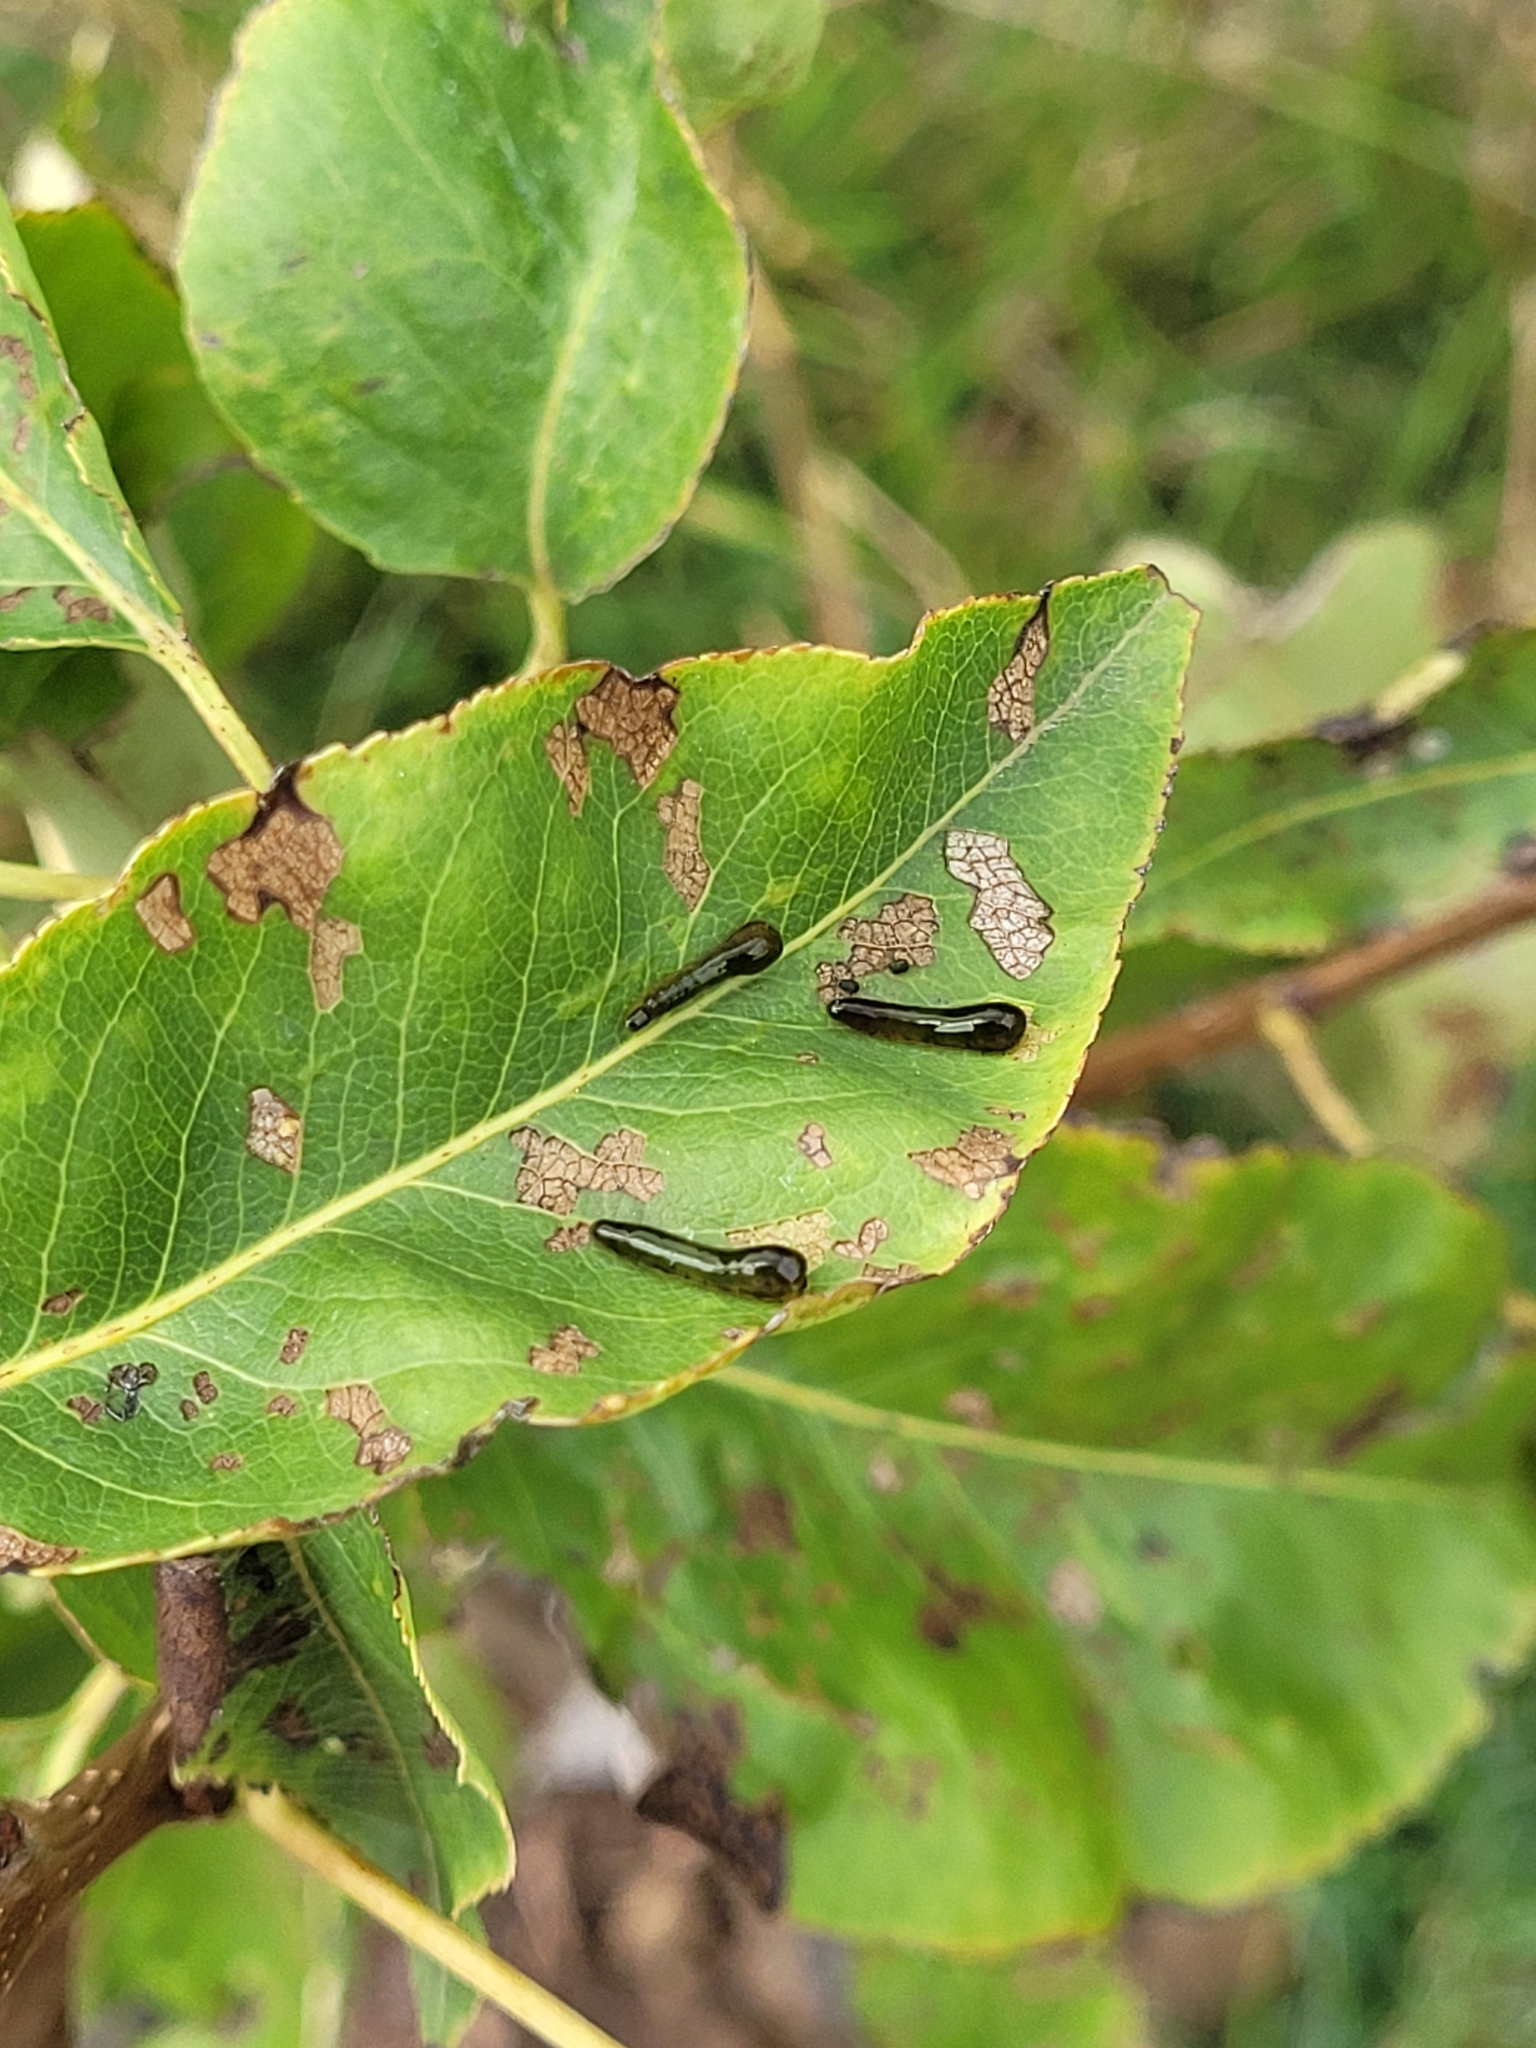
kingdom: Animalia
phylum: Arthropoda
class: Insecta
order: Hymenoptera
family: Tenthredinidae
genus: Caliroa
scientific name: Caliroa cerasi
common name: Pear sawfly
